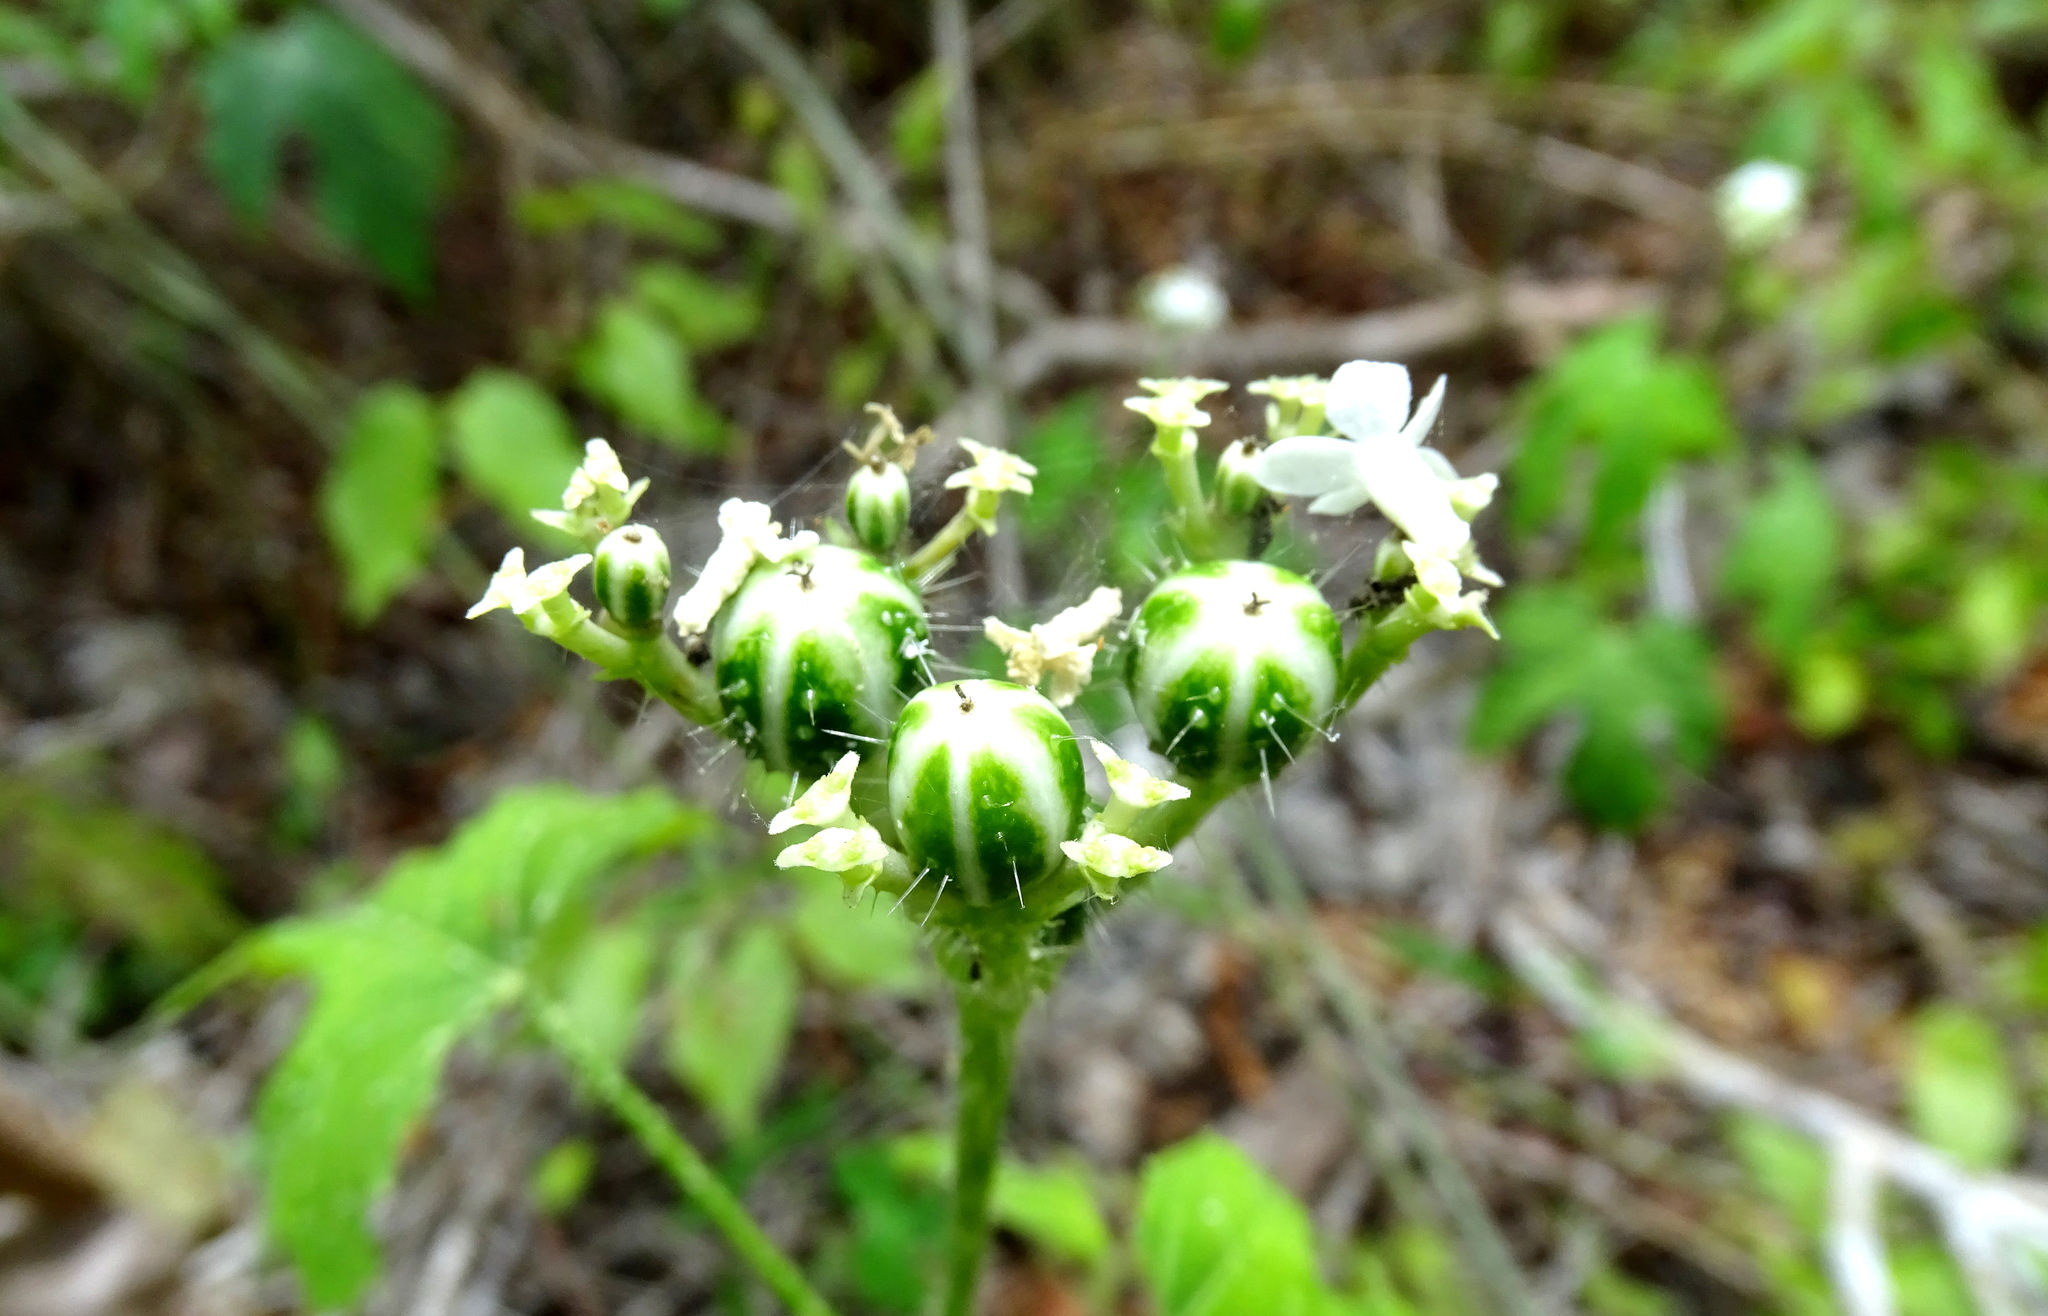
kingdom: Plantae
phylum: Tracheophyta
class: Magnoliopsida
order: Malpighiales
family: Euphorbiaceae
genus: Cnidoscolus
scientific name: Cnidoscolus souzae
